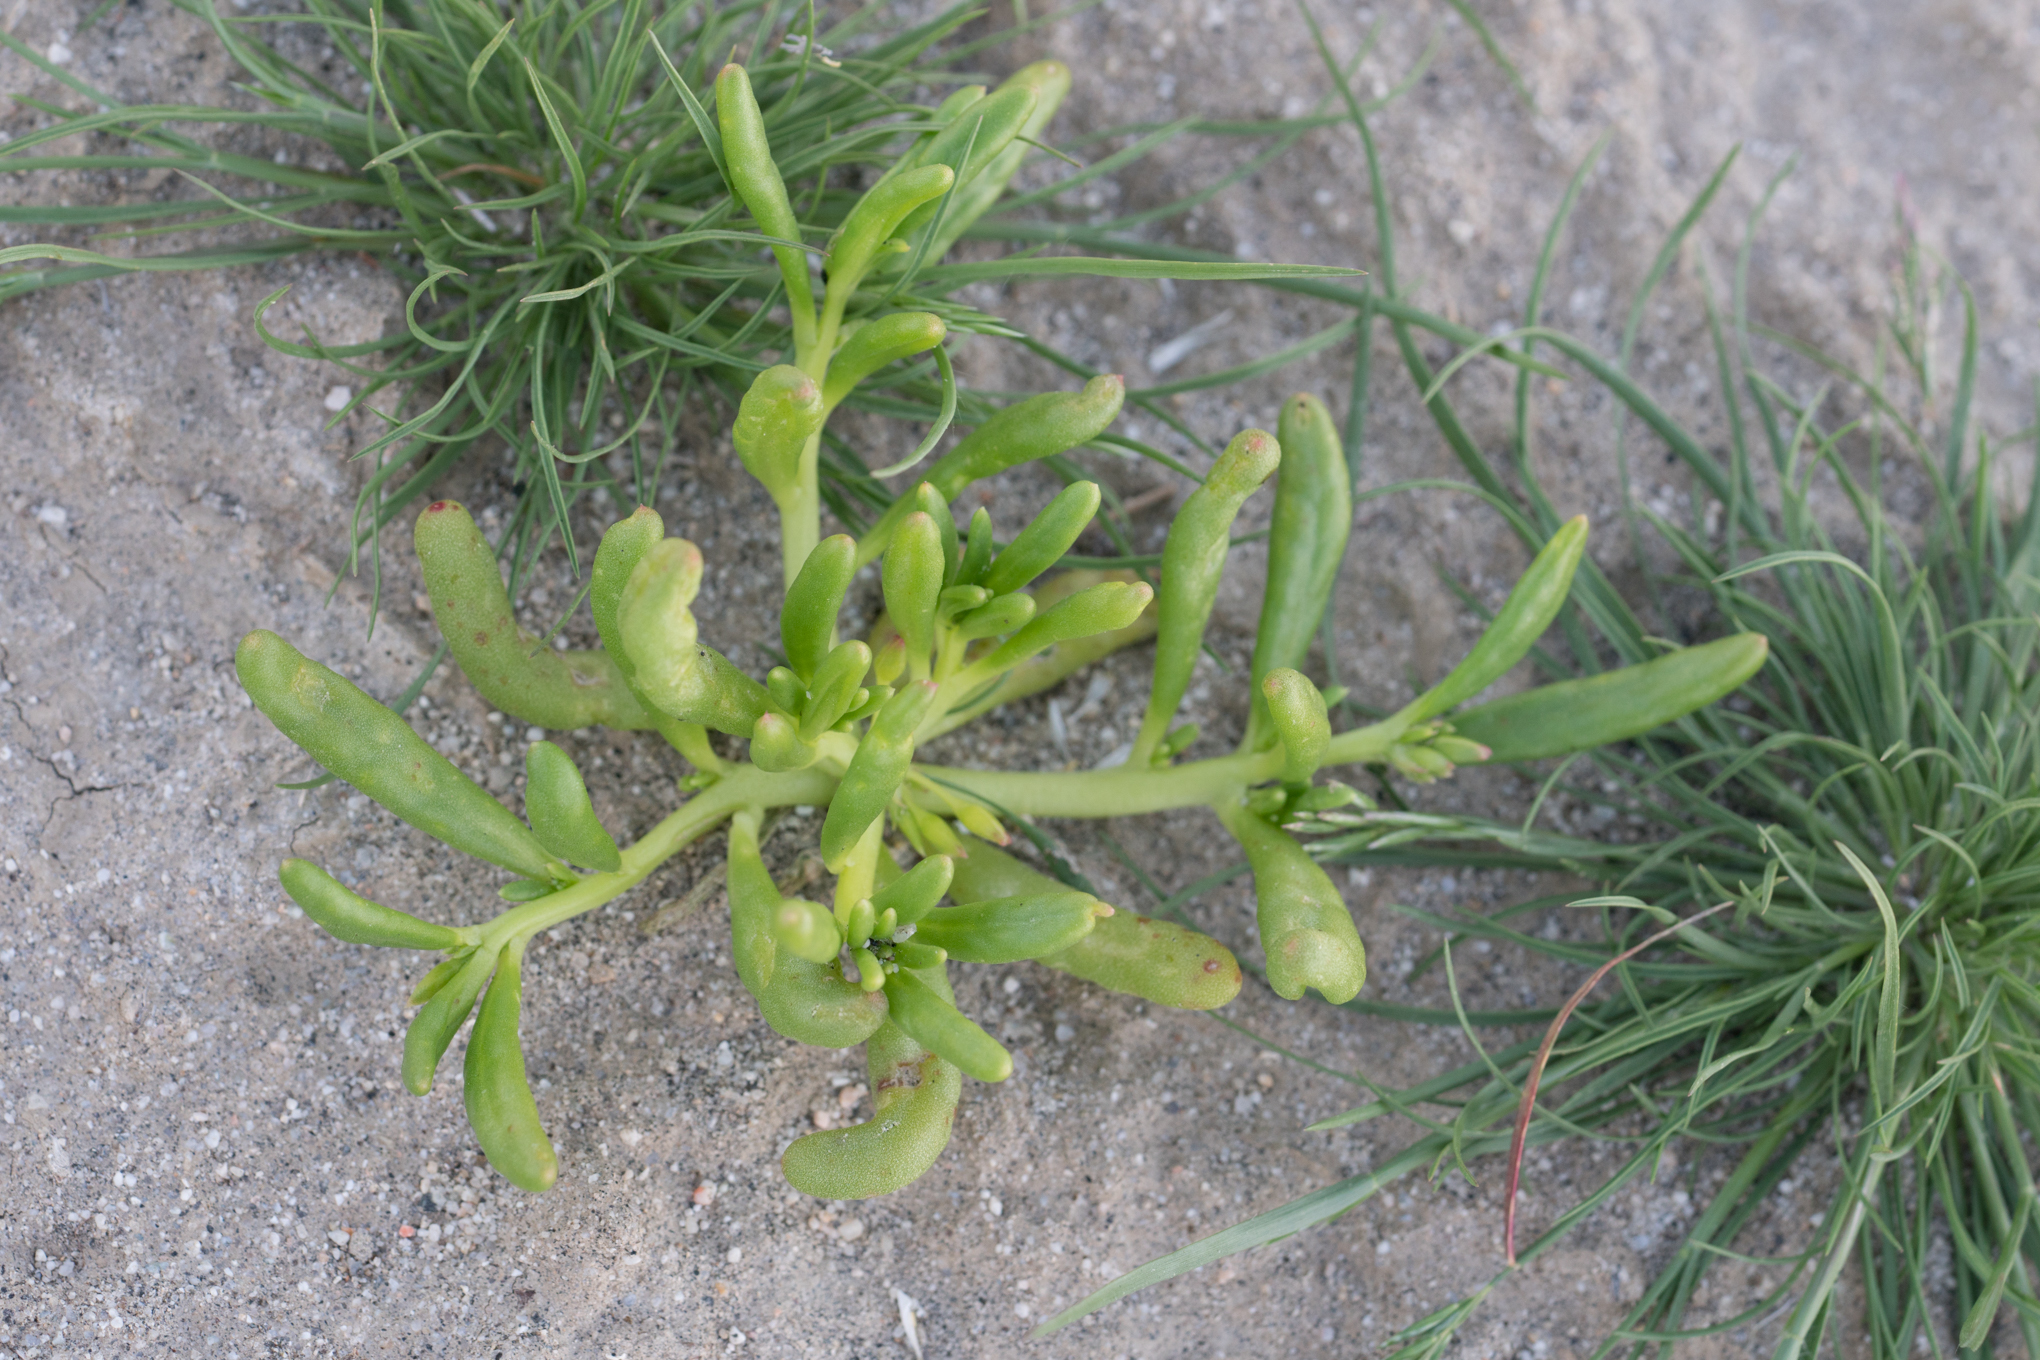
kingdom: Plantae
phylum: Tracheophyta
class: Magnoliopsida
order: Caryophyllales
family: Montiaceae
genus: Thingia
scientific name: Thingia ambigua
